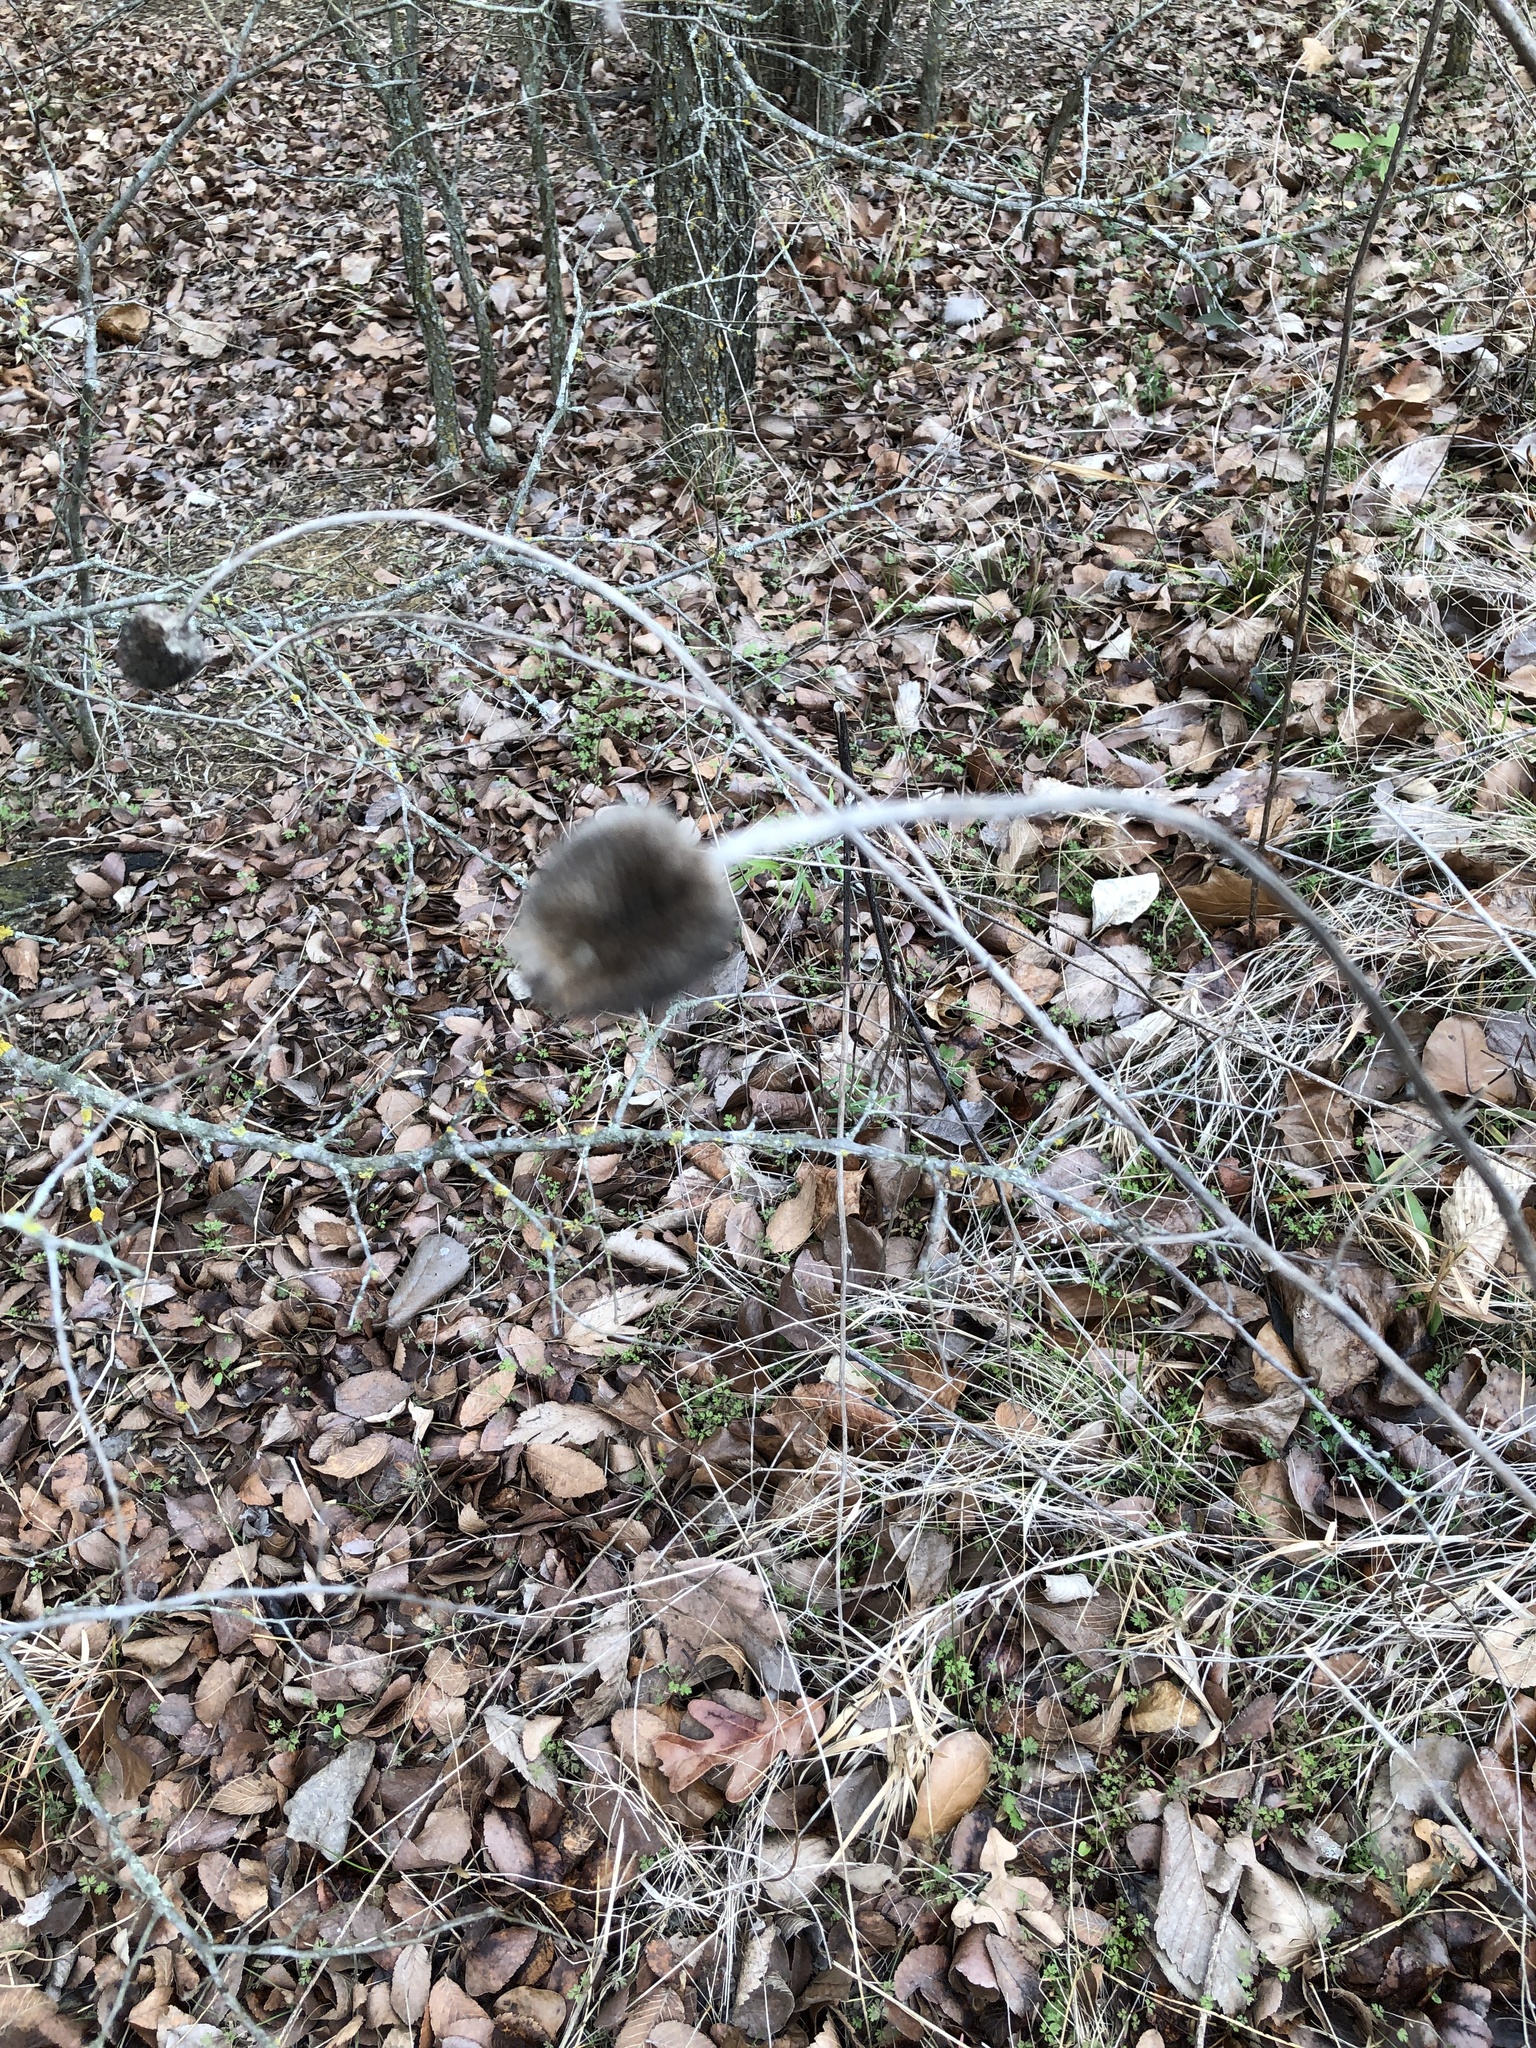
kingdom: Plantae
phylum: Tracheophyta
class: Magnoliopsida
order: Asterales
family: Asteraceae
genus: Rudbeckia
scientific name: Rudbeckia hirta
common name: Black-eyed-susan
